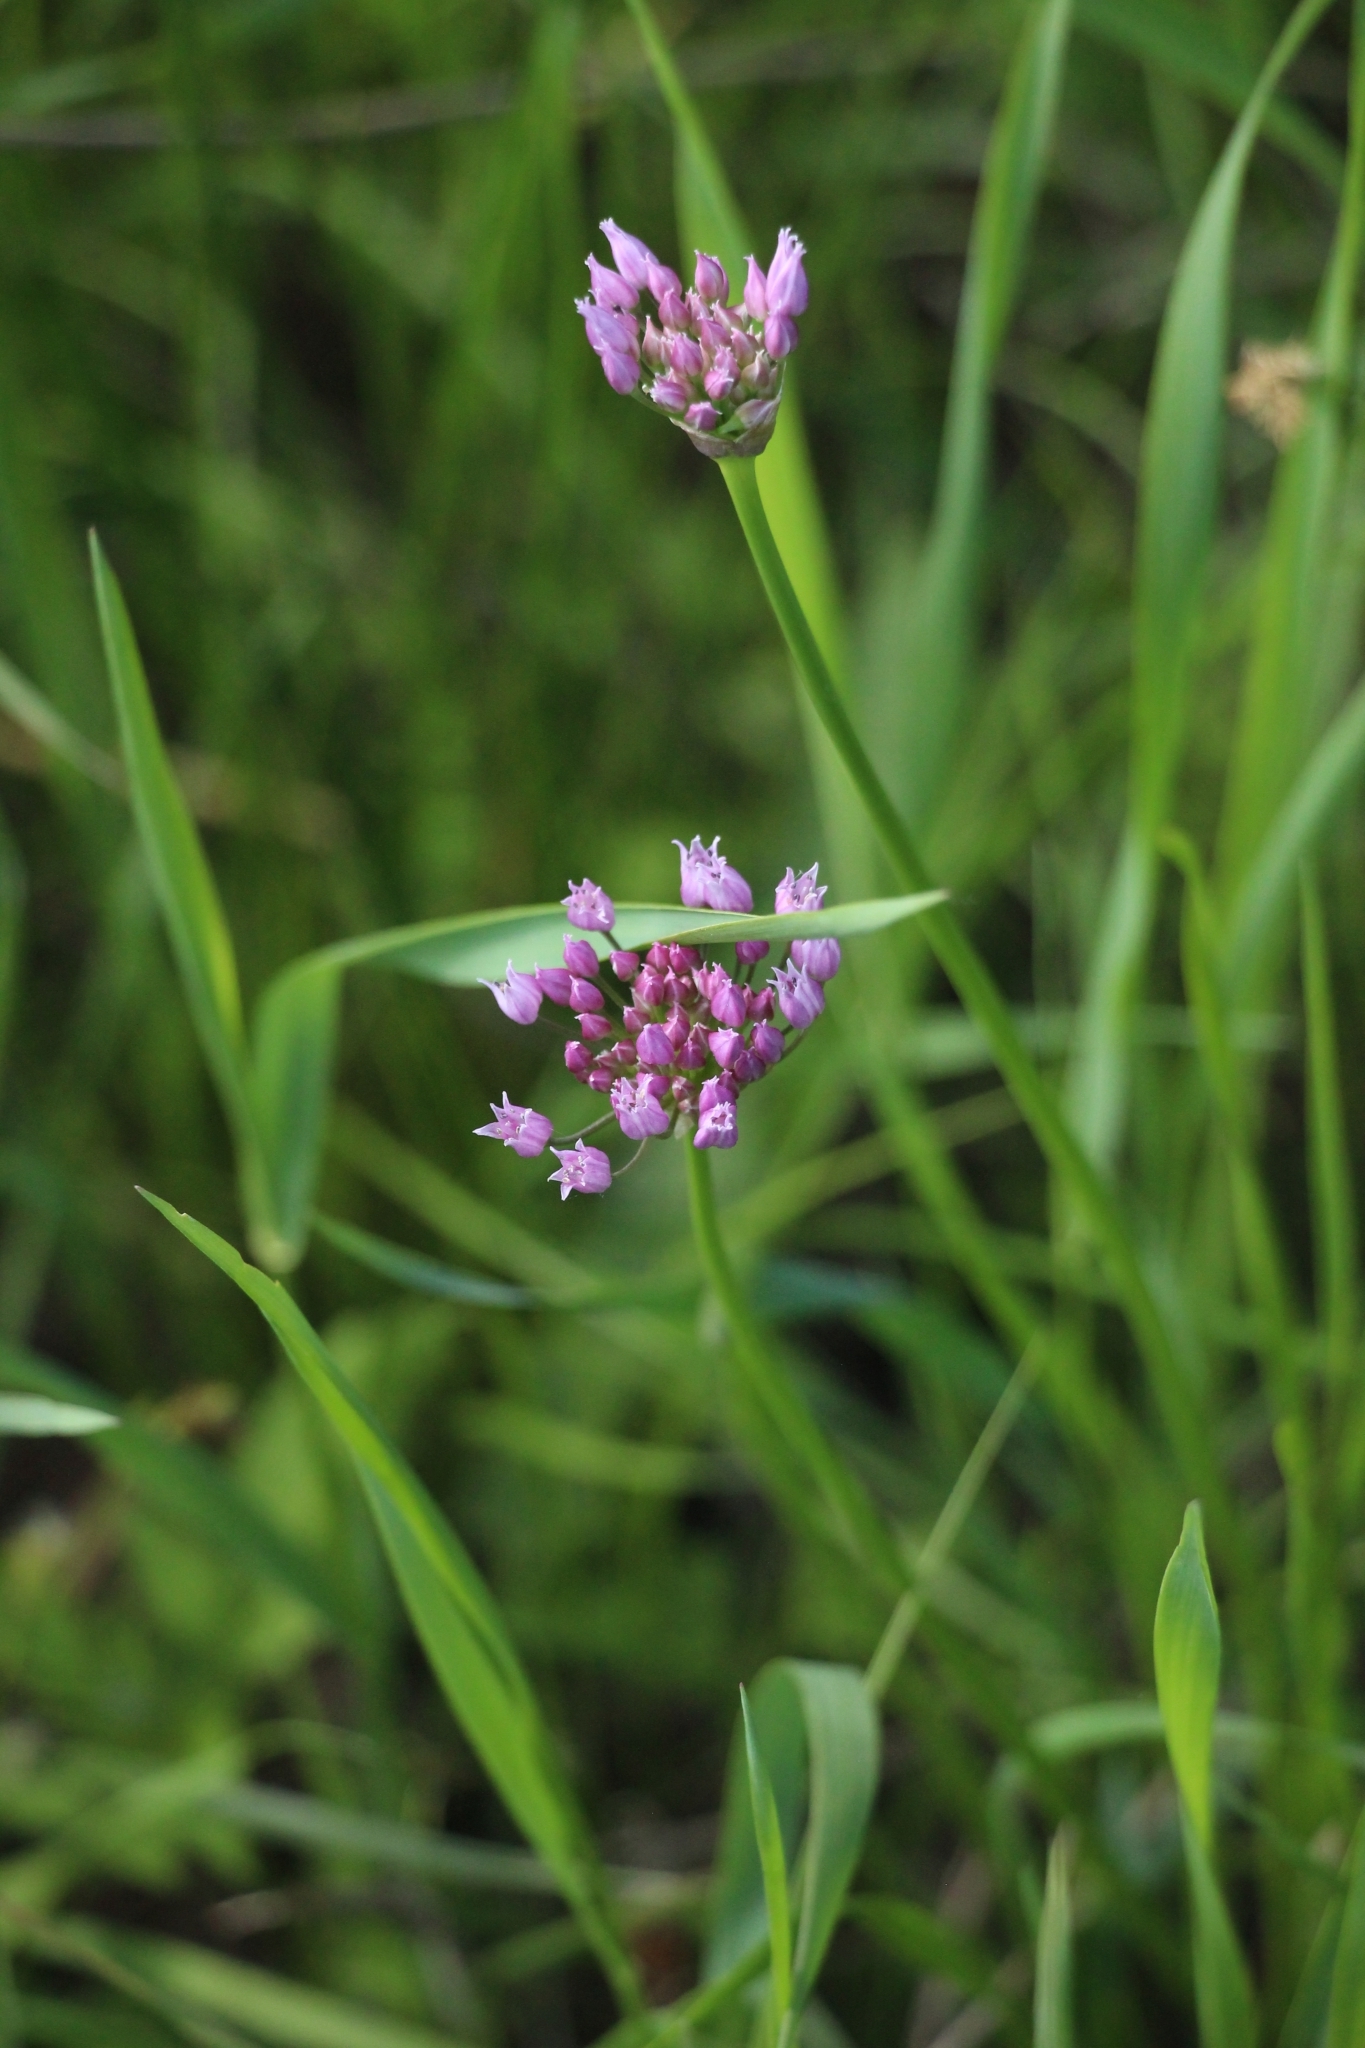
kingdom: Plantae
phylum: Tracheophyta
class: Liliopsida
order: Asparagales
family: Amaryllidaceae
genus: Allium
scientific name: Allium angulosum
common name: Mouse garlic
